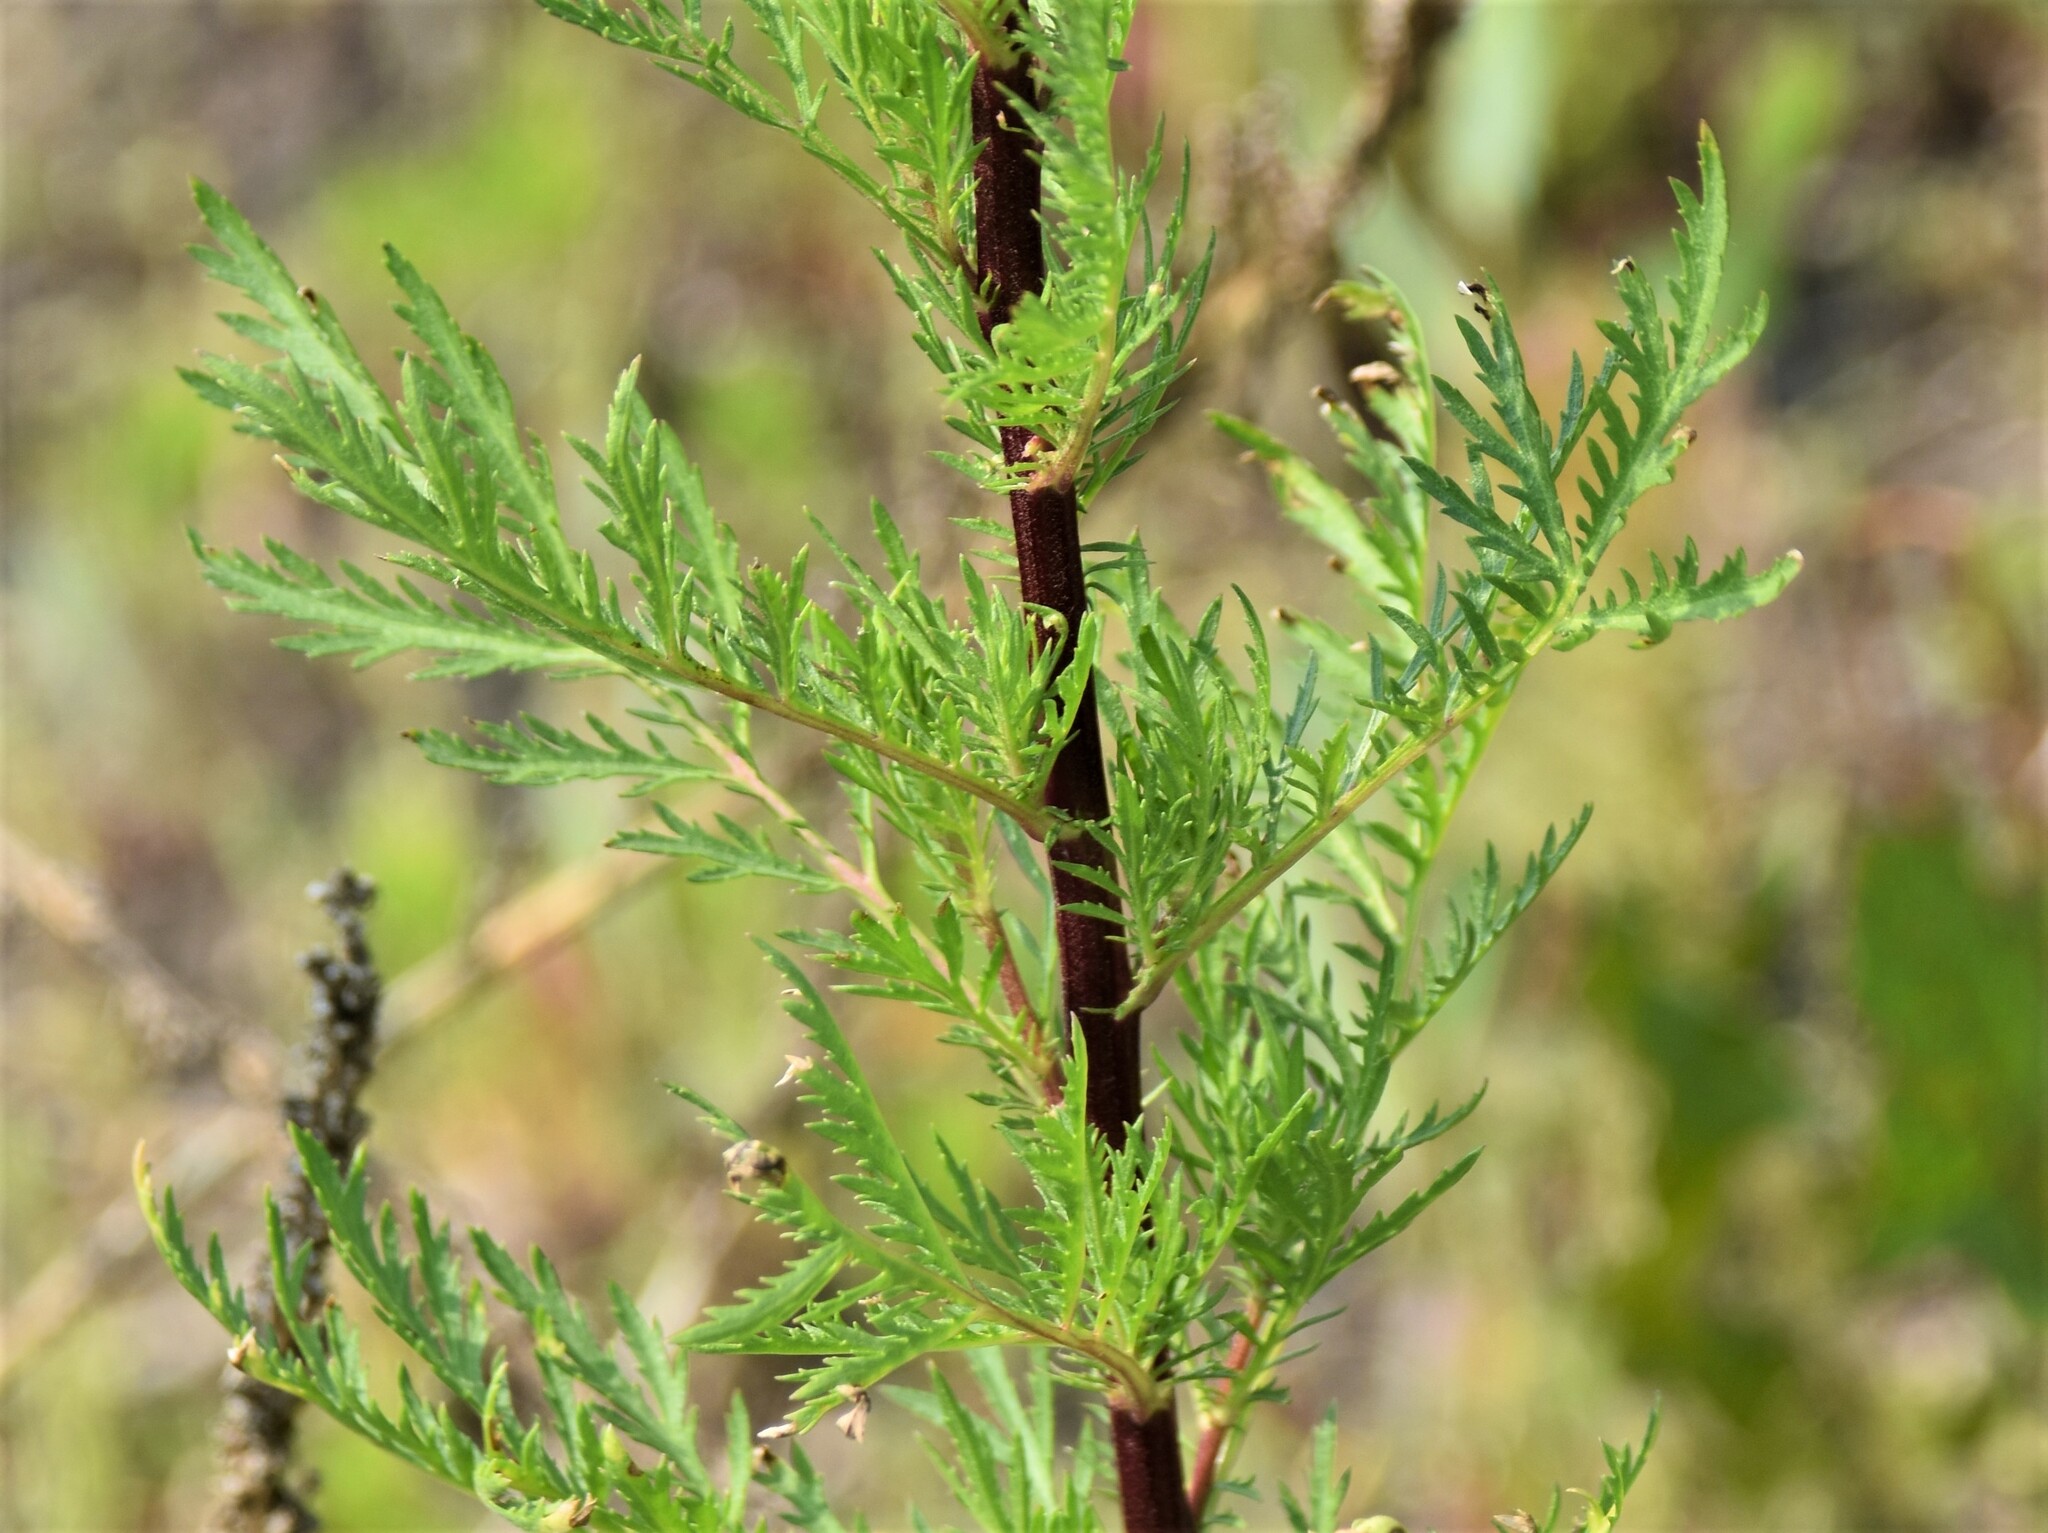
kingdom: Plantae
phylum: Tracheophyta
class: Magnoliopsida
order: Asterales
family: Asteraceae
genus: Artemisia
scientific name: Artemisia biennis
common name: Biennial wormwood
